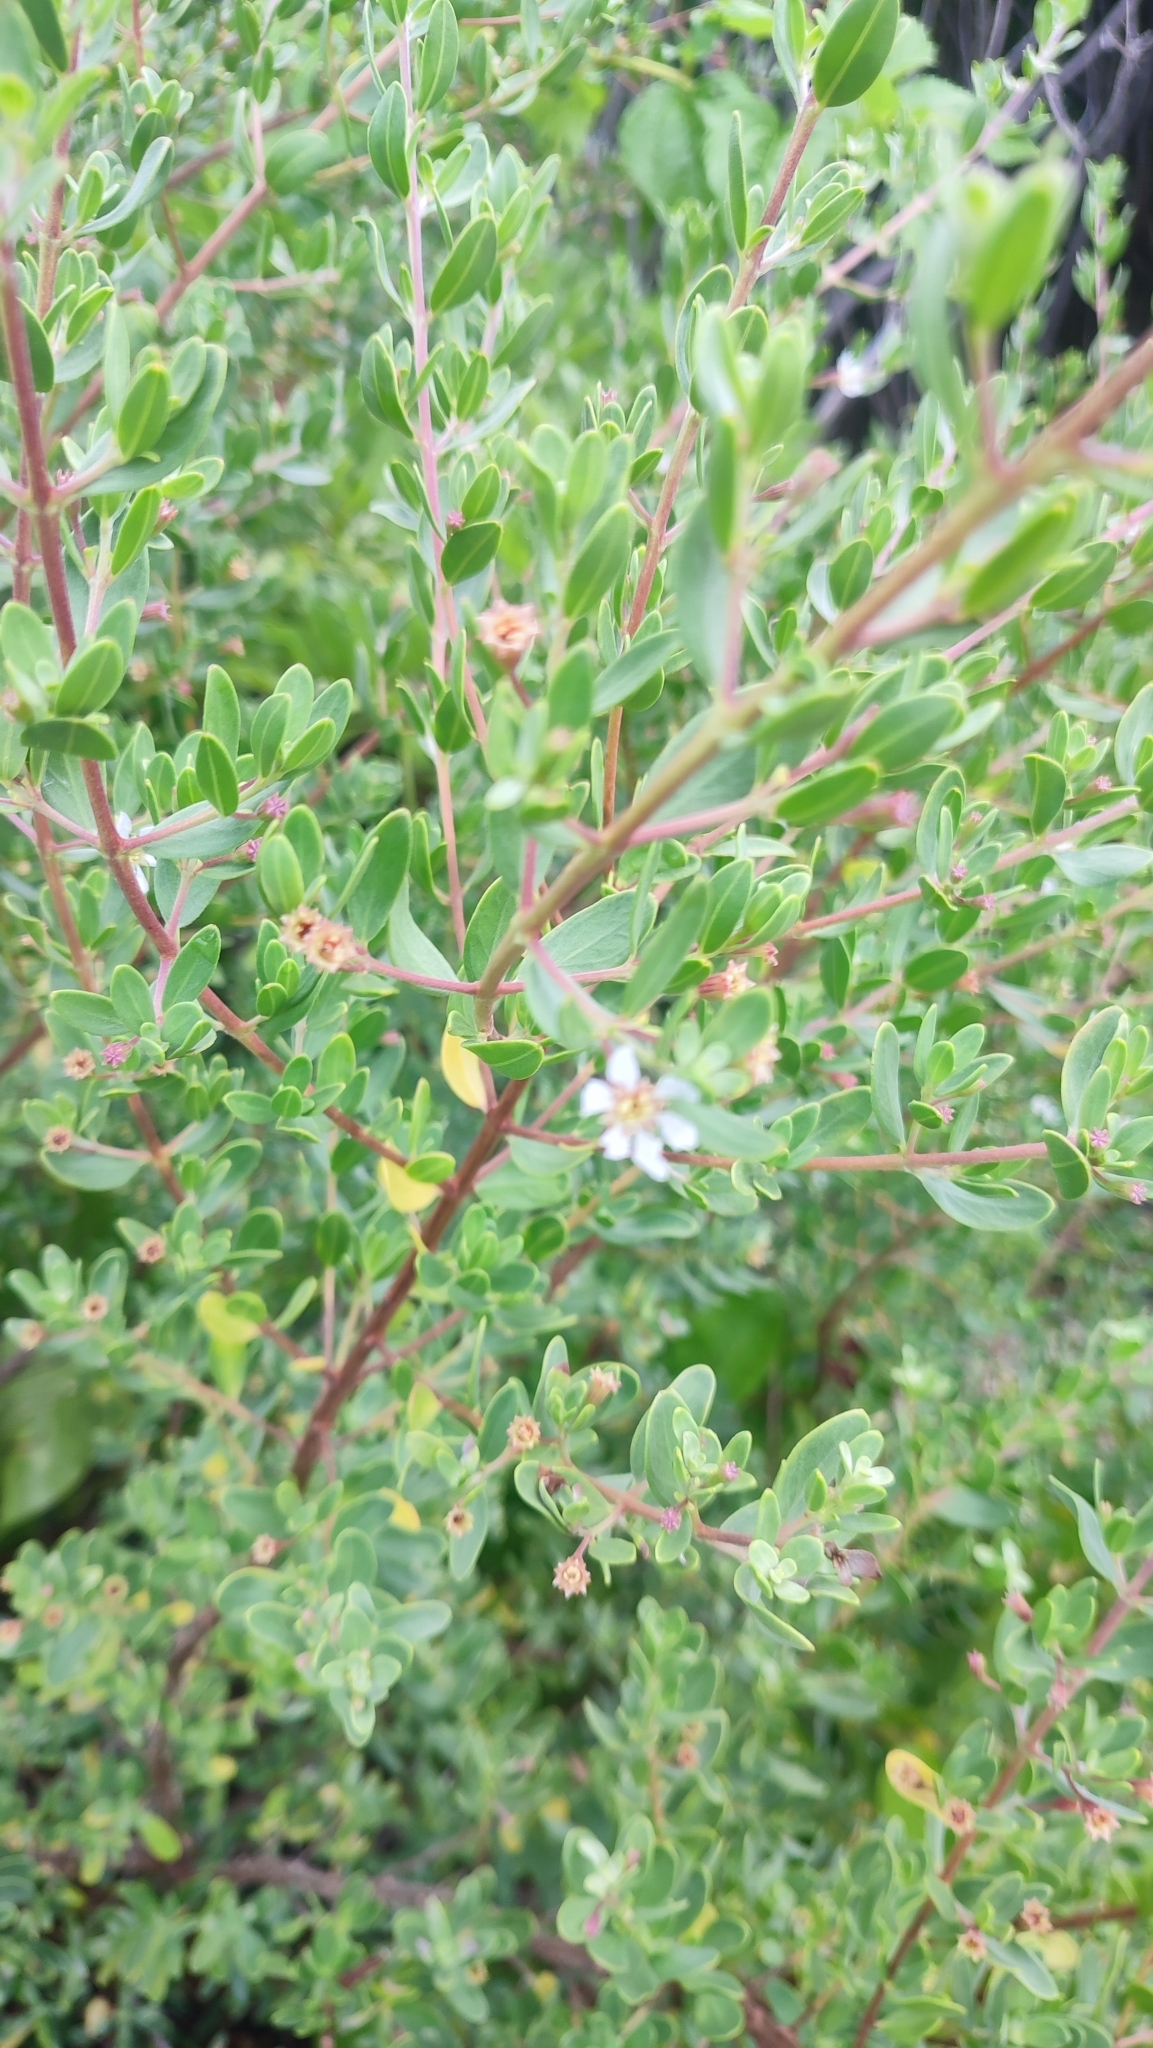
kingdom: Plantae
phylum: Tracheophyta
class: Magnoliopsida
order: Myrtales
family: Lythraceae
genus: Pemphis
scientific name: Pemphis acidula
